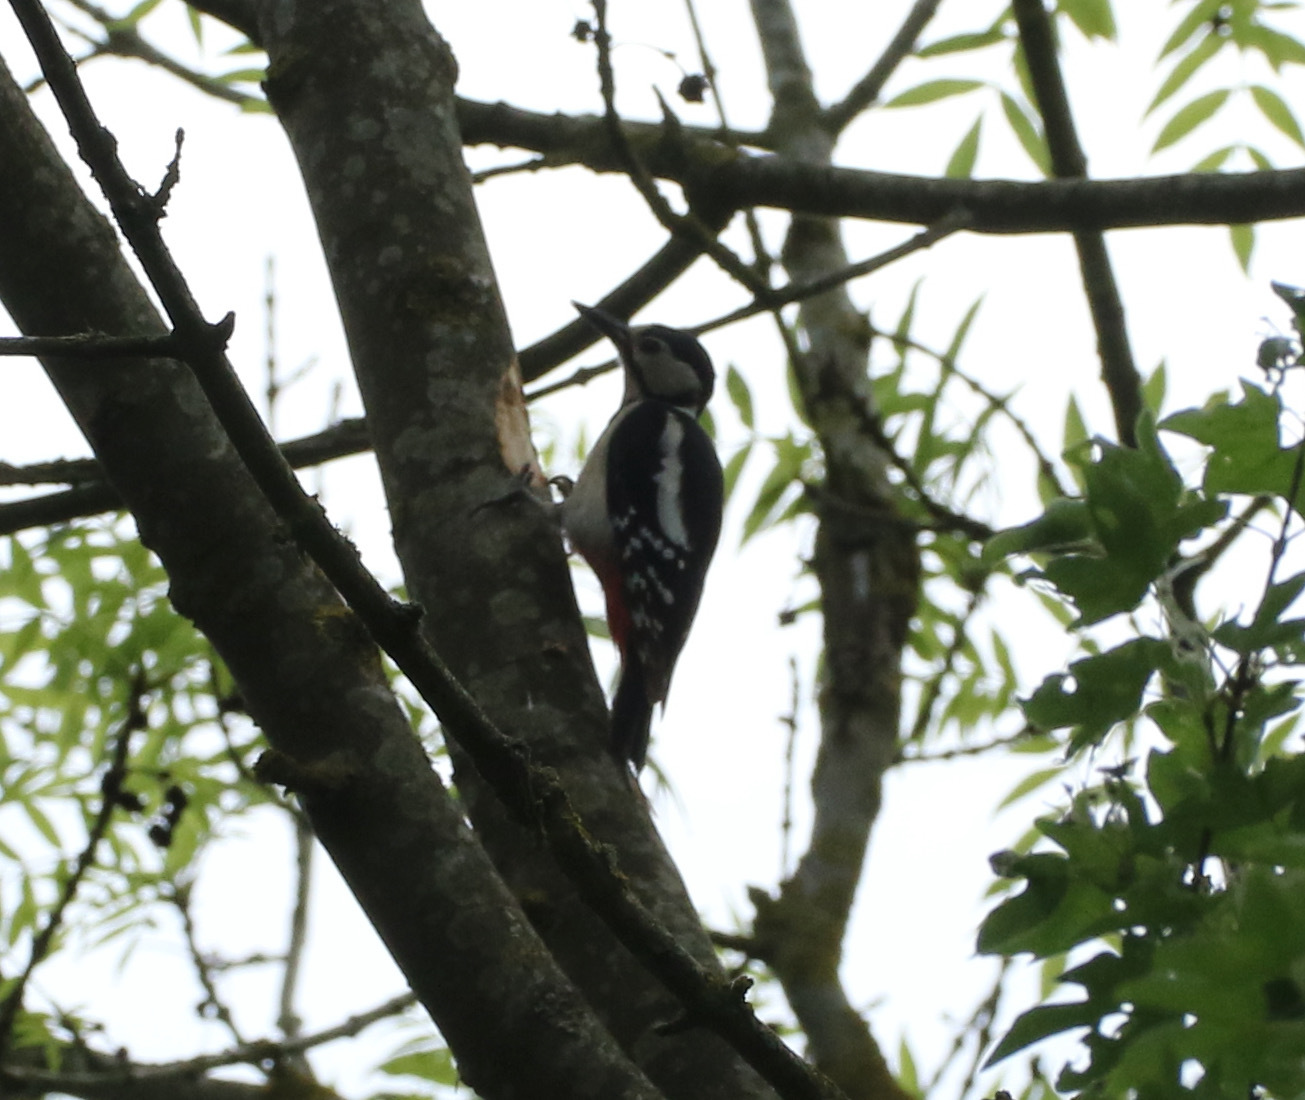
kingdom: Animalia
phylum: Chordata
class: Aves
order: Piciformes
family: Picidae
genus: Dendrocopos
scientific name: Dendrocopos major
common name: Great spotted woodpecker
